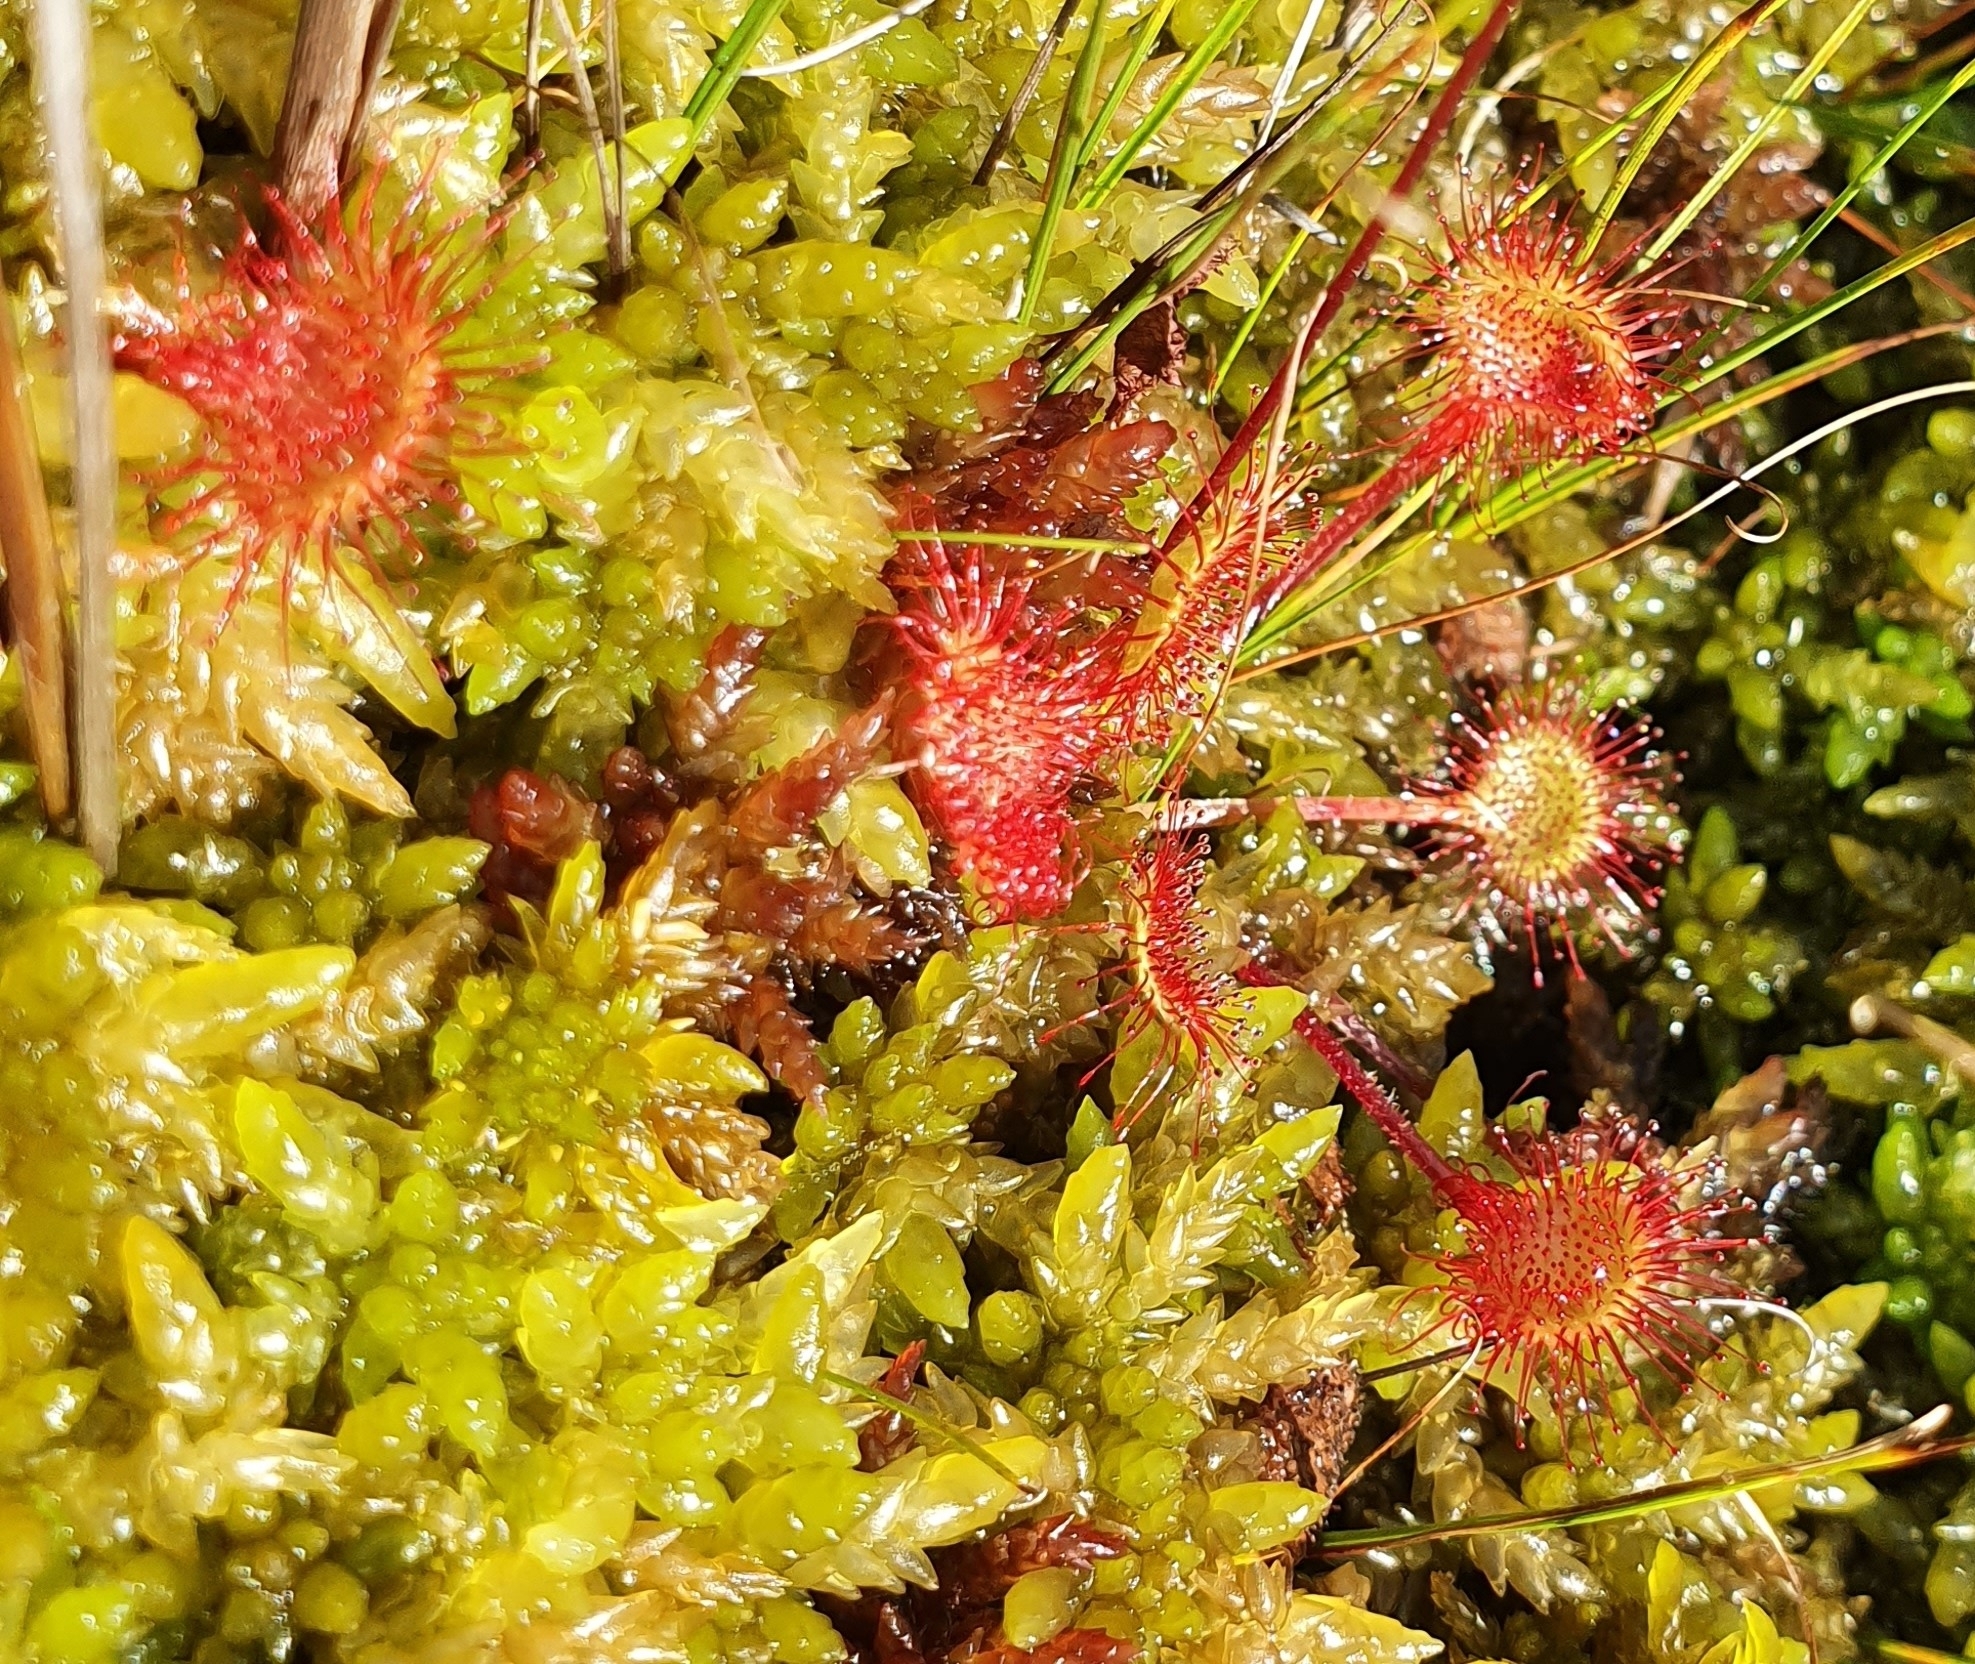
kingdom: Plantae
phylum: Tracheophyta
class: Magnoliopsida
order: Caryophyllales
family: Droseraceae
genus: Drosera
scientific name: Drosera rotundifolia
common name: Round-leaved sundew
